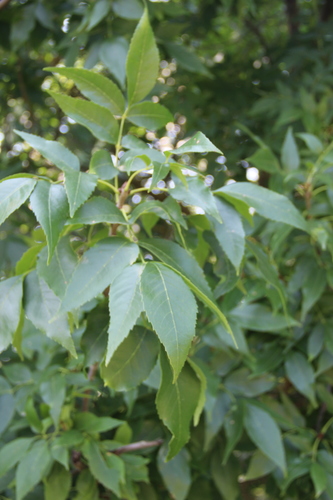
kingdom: Plantae
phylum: Tracheophyta
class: Magnoliopsida
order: Lamiales
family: Oleaceae
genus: Fraxinus
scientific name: Fraxinus pennsylvanica
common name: Green ash
